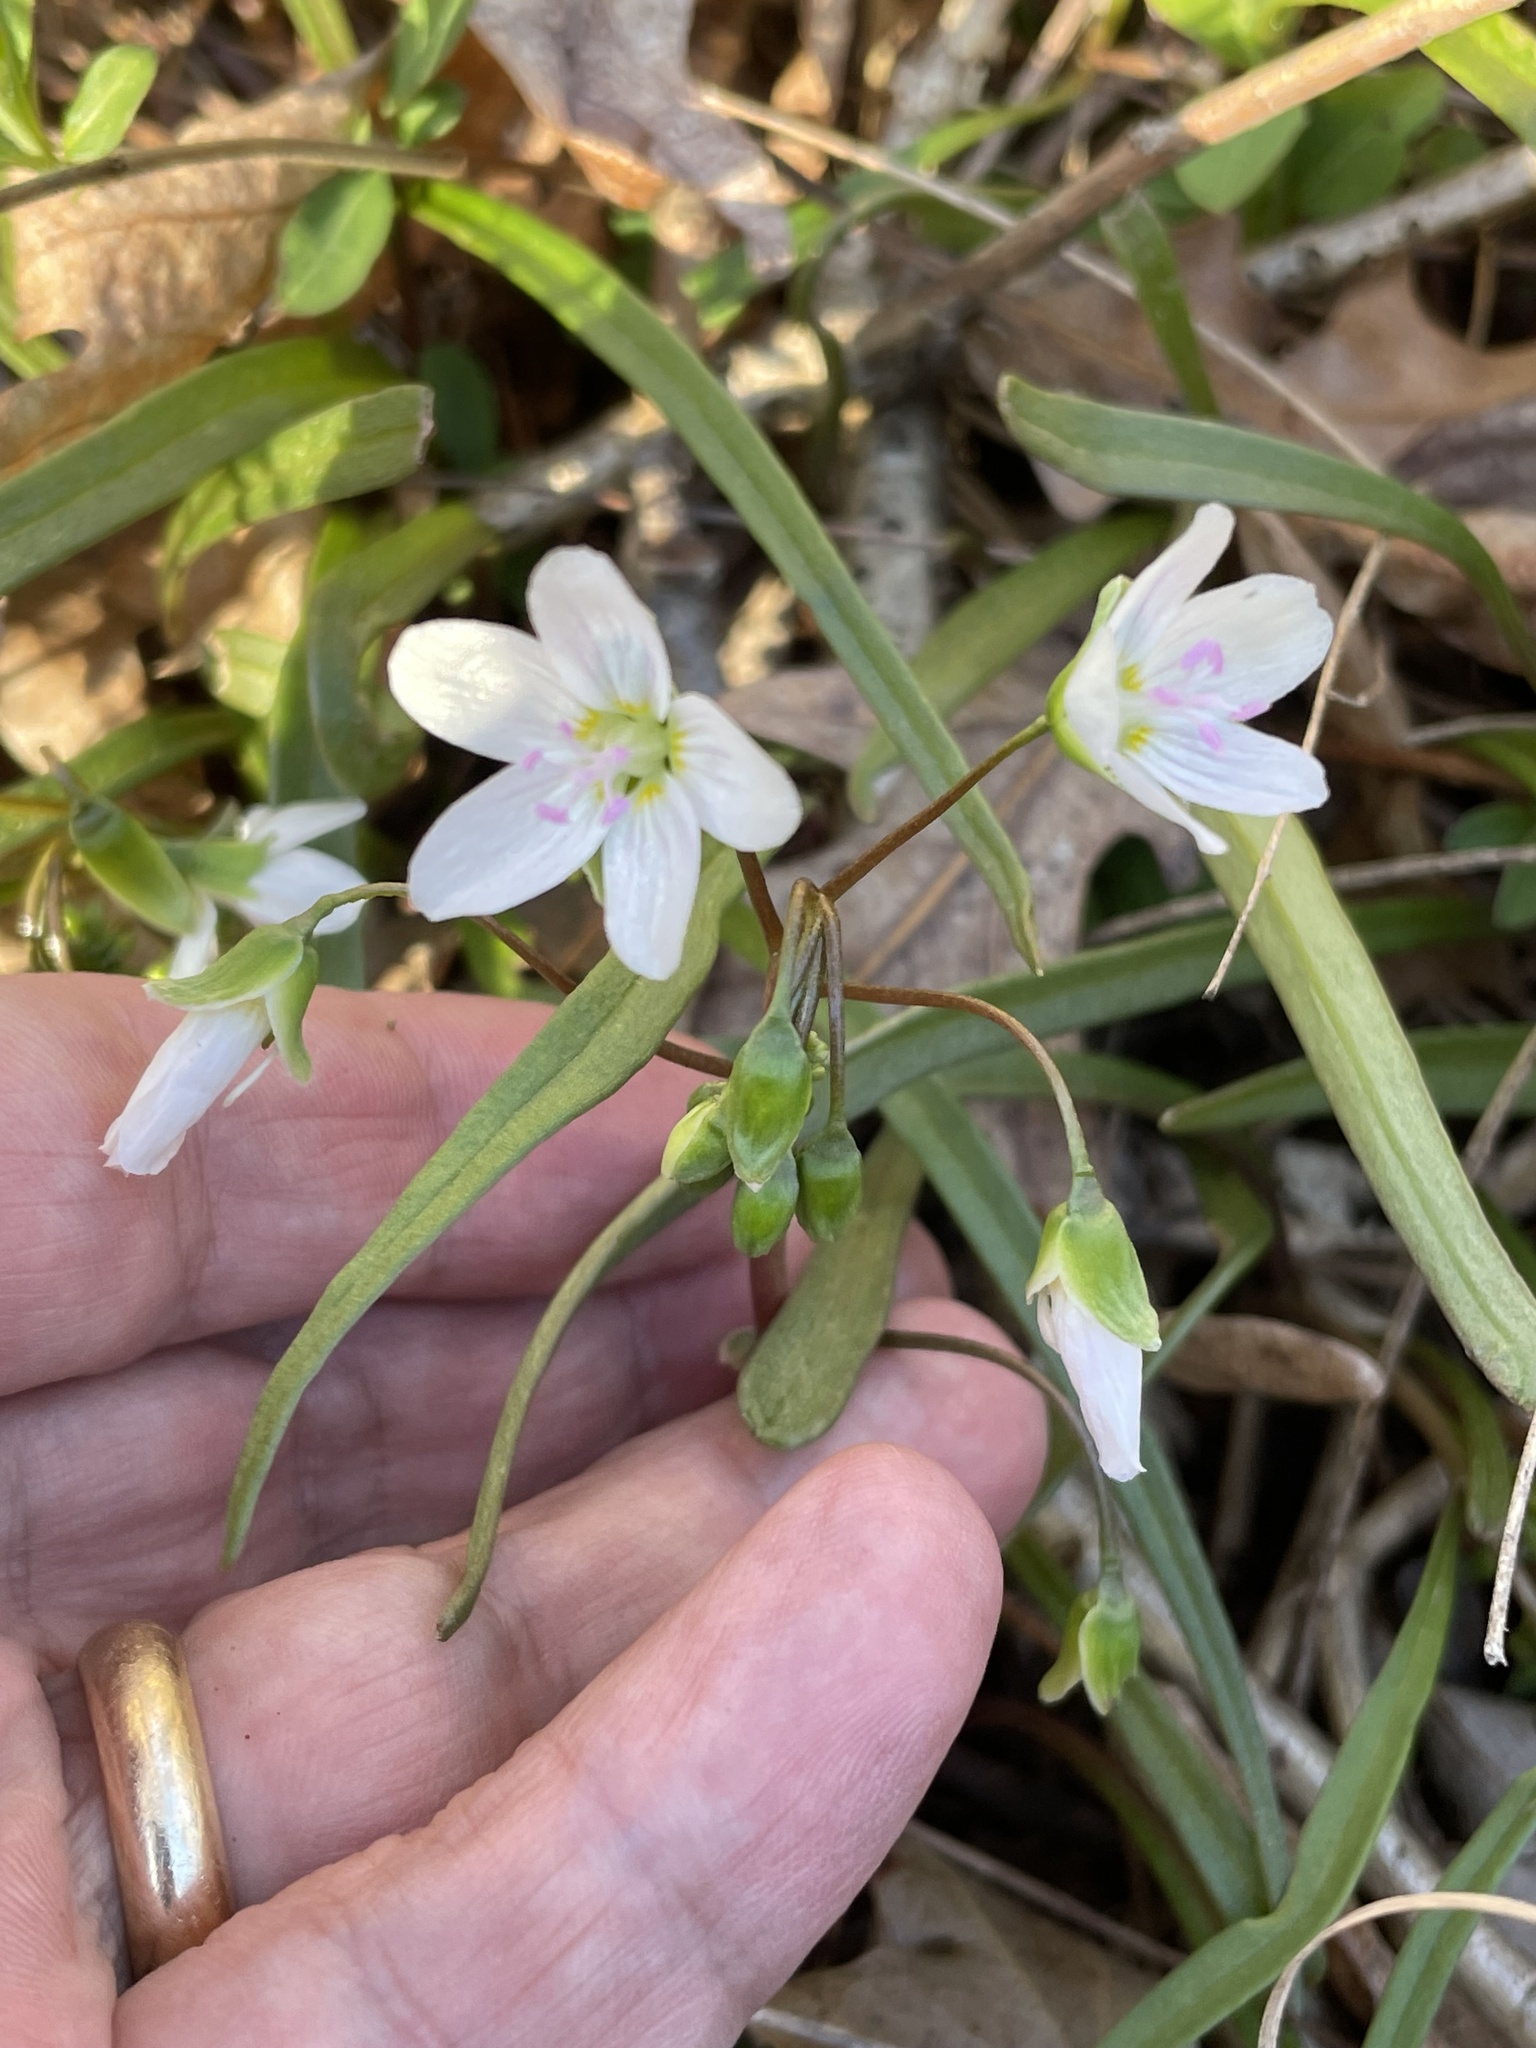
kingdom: Plantae
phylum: Tracheophyta
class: Magnoliopsida
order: Caryophyllales
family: Montiaceae
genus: Claytonia
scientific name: Claytonia virginica
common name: Virginia springbeauty
